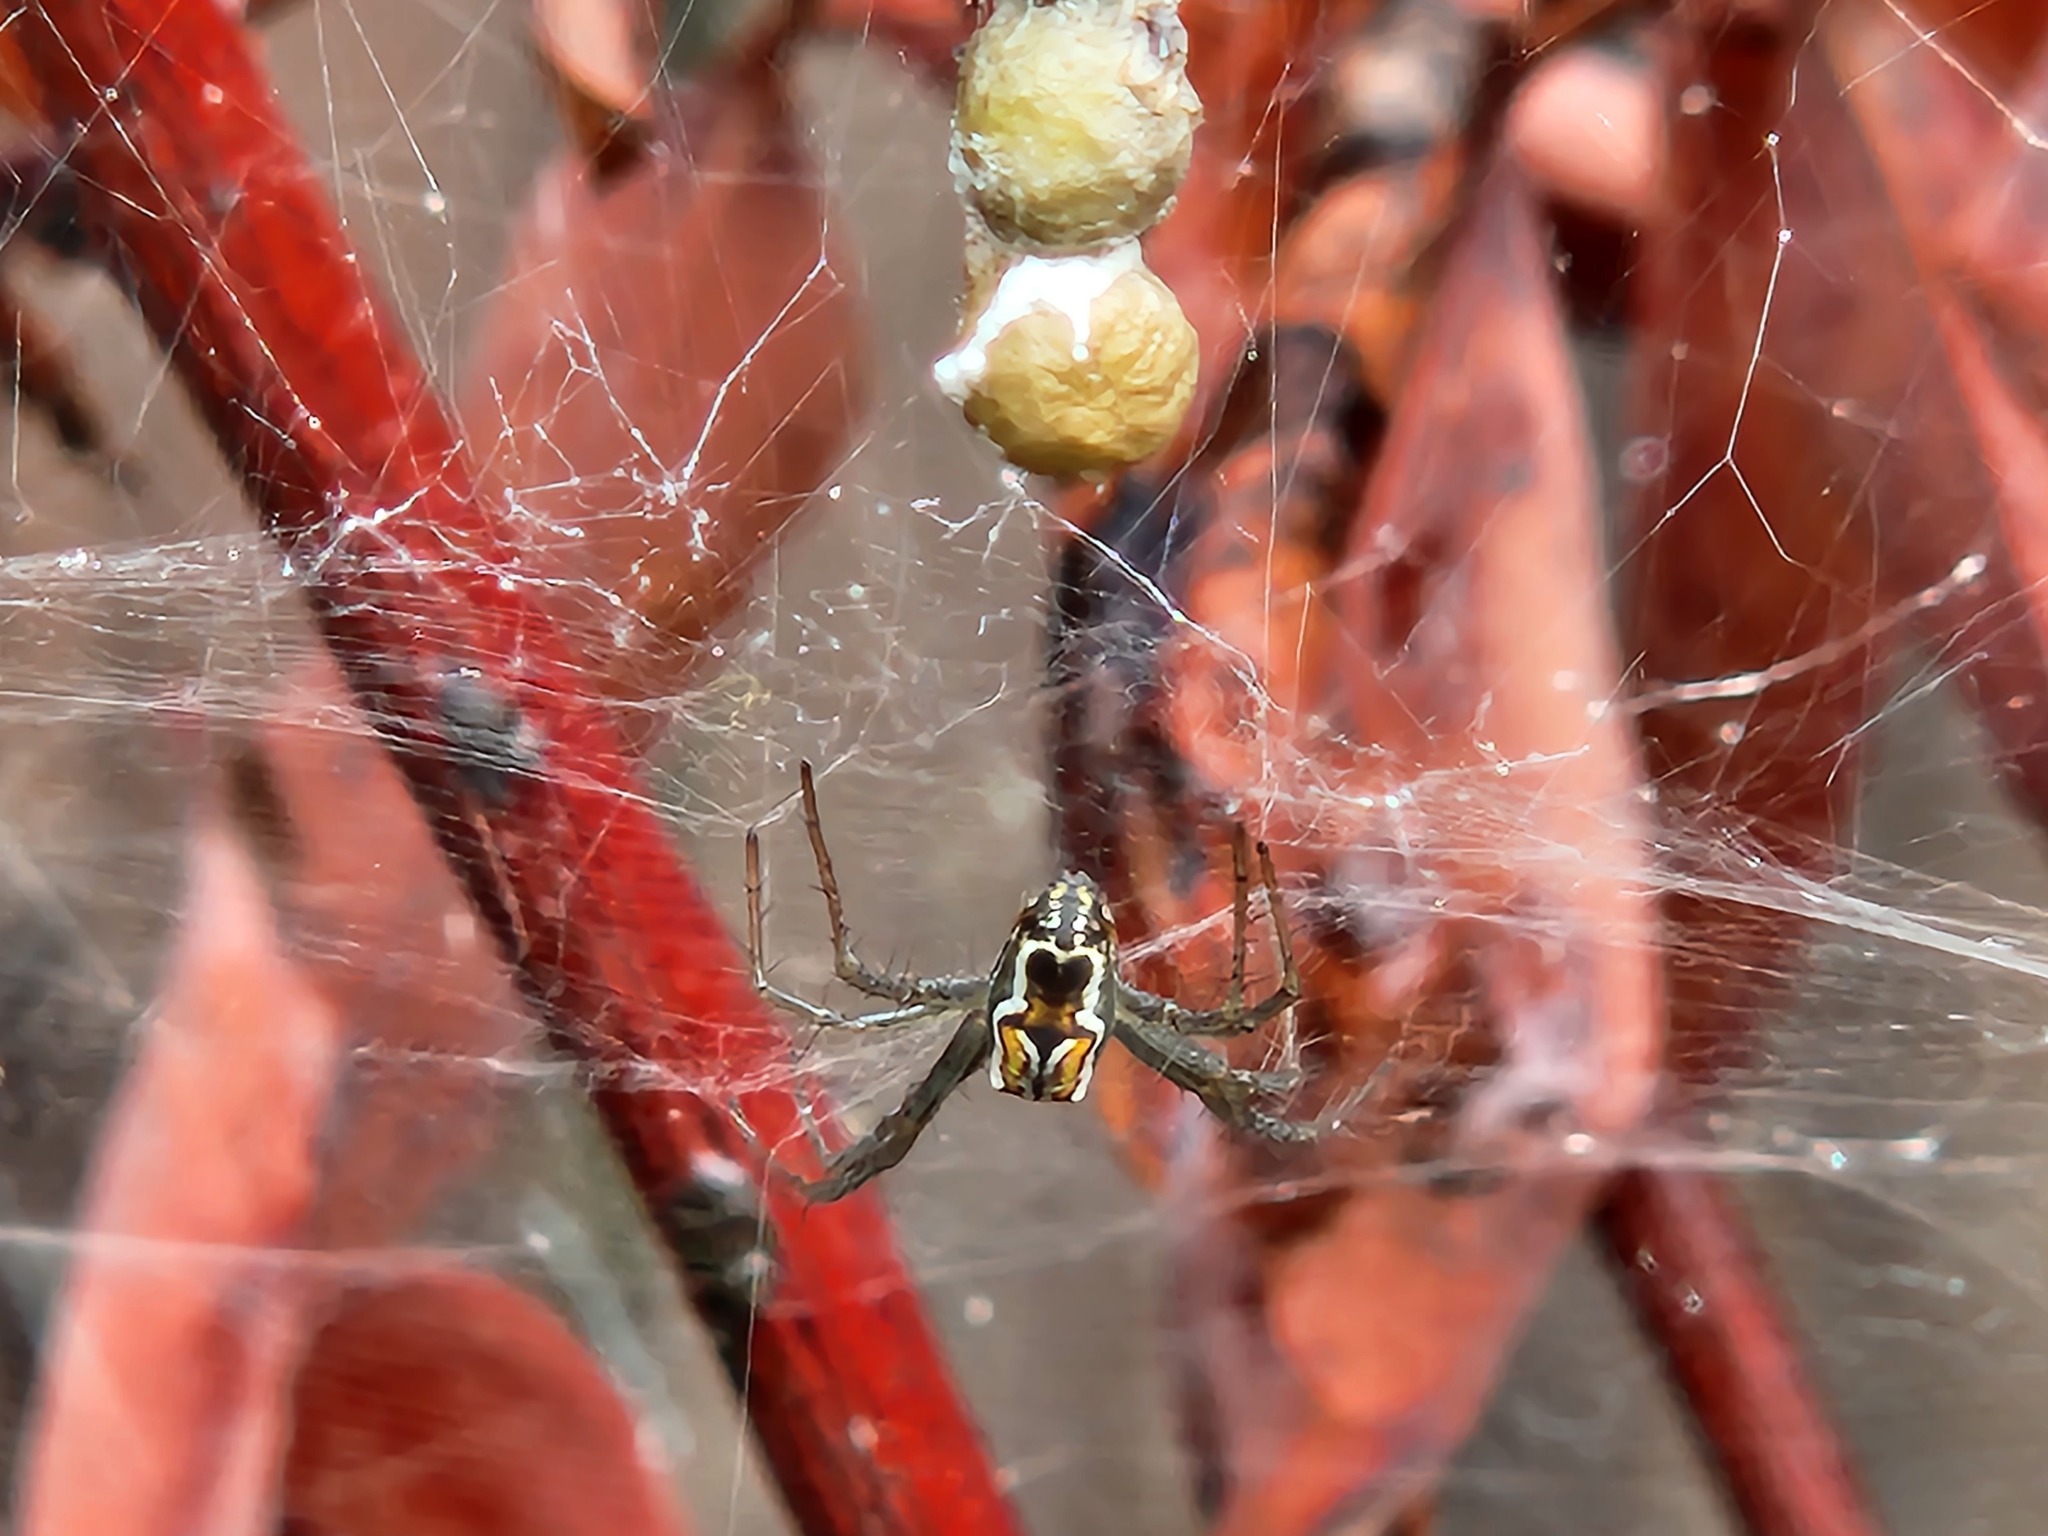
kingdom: Animalia
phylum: Arthropoda
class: Arachnida
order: Araneae
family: Araneidae
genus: Mecynogea
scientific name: Mecynogea lemniscata
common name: Orb weavers
